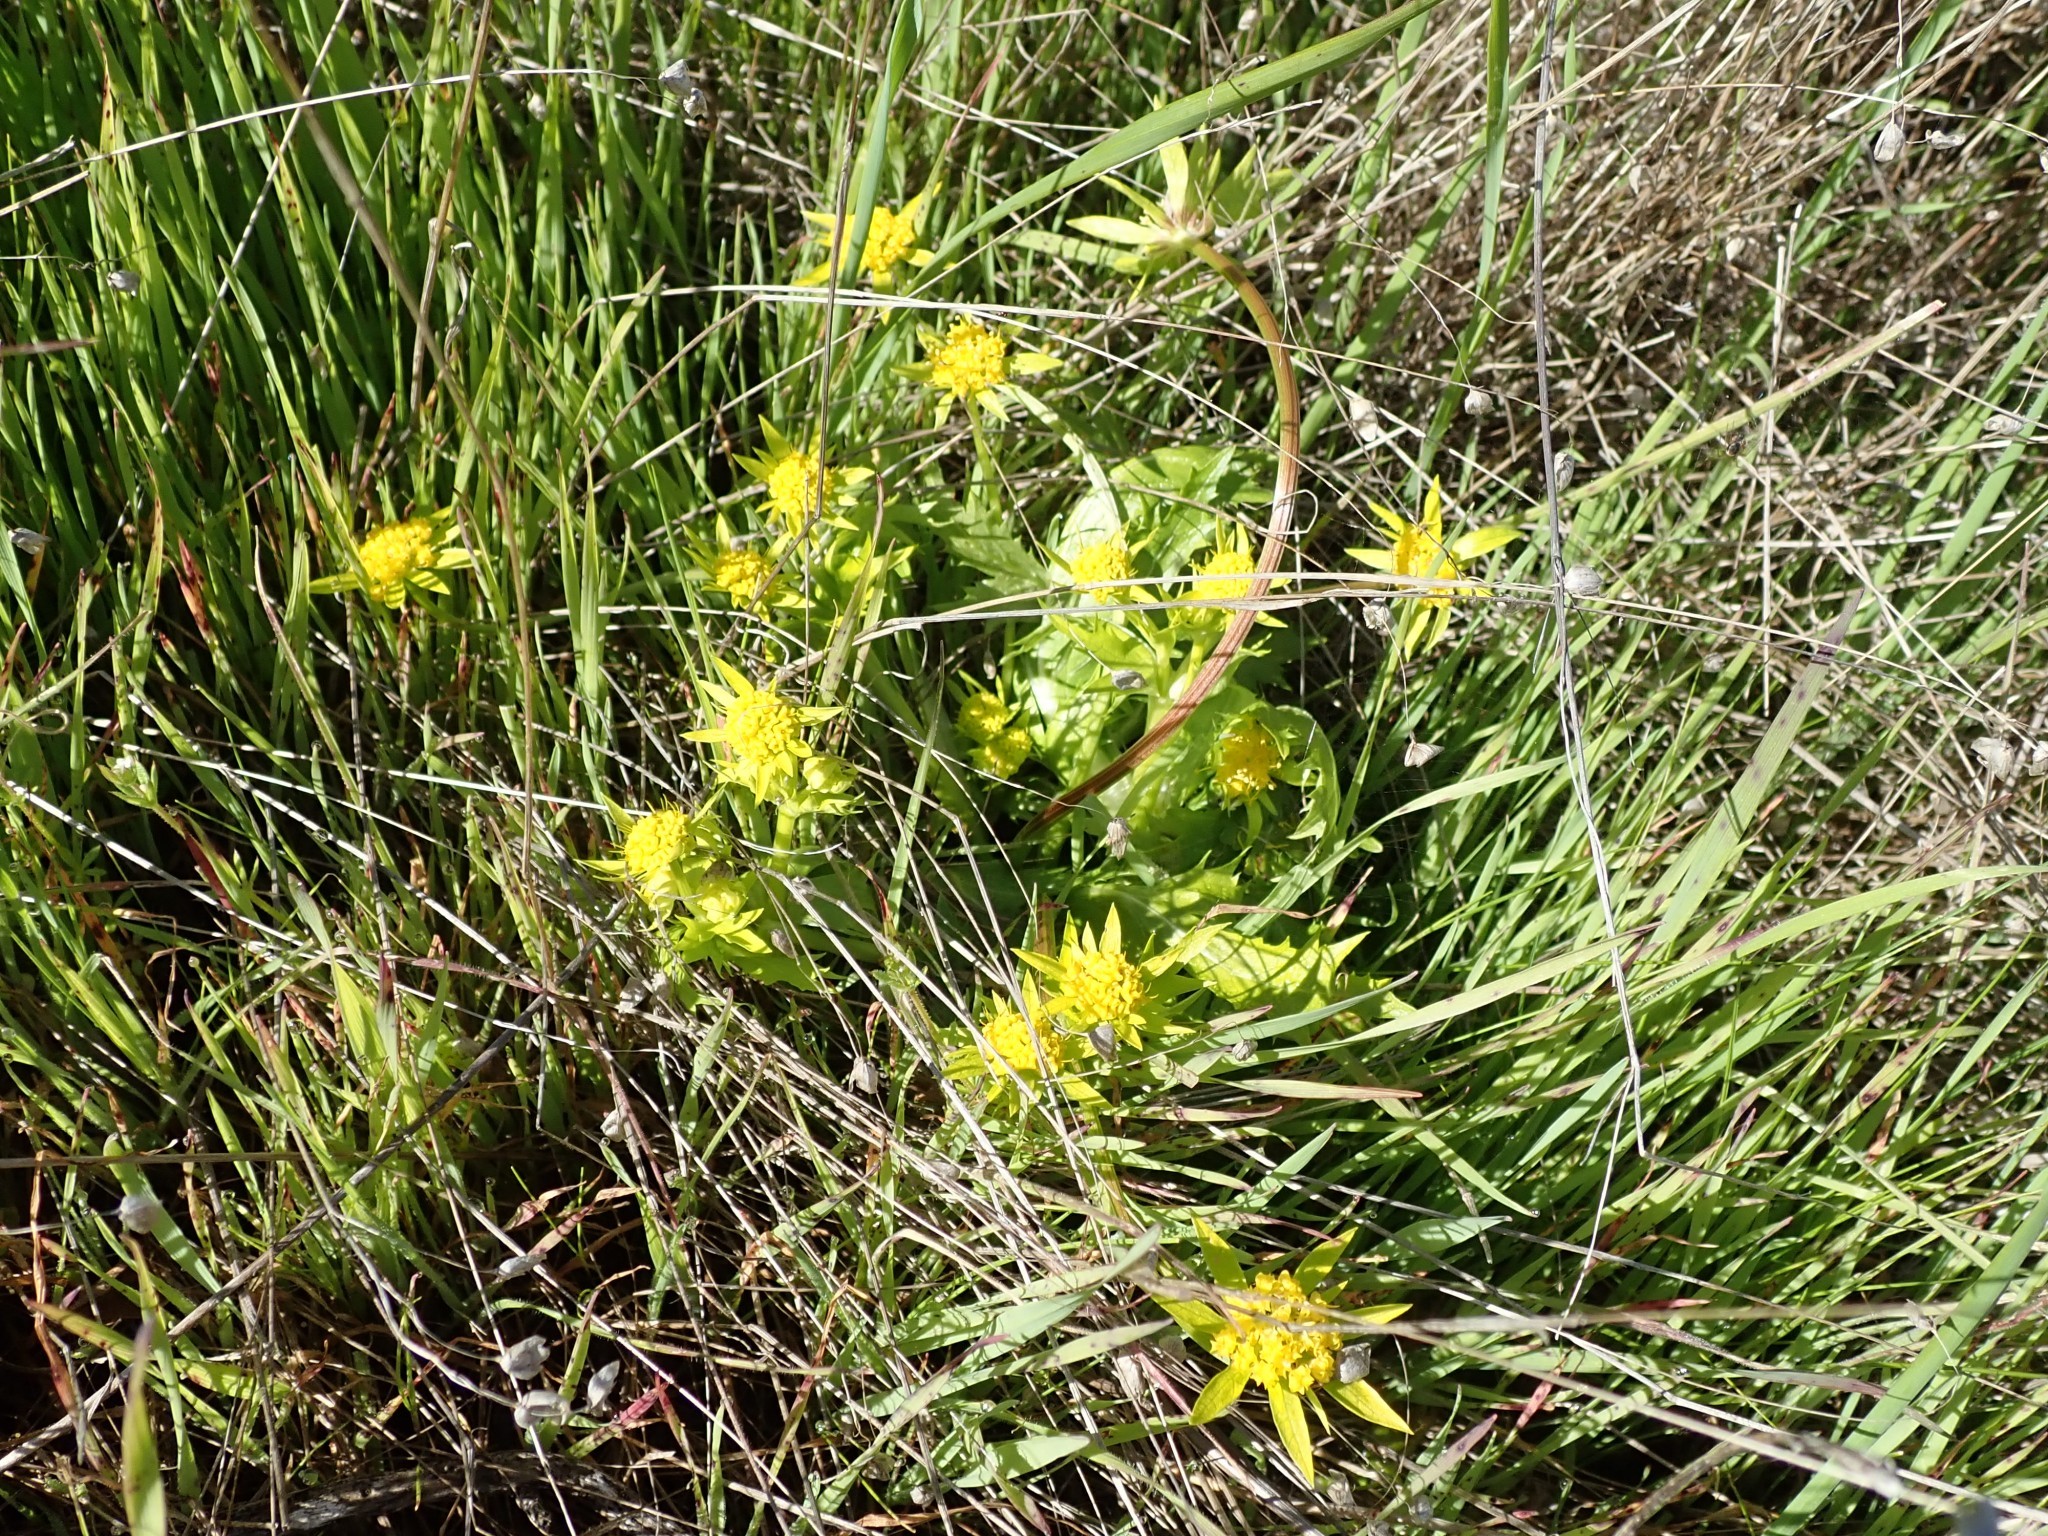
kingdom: Plantae
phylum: Tracheophyta
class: Magnoliopsida
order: Apiales
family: Apiaceae
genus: Sanicula
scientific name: Sanicula arctopoides
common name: Footsteps-of-spring
